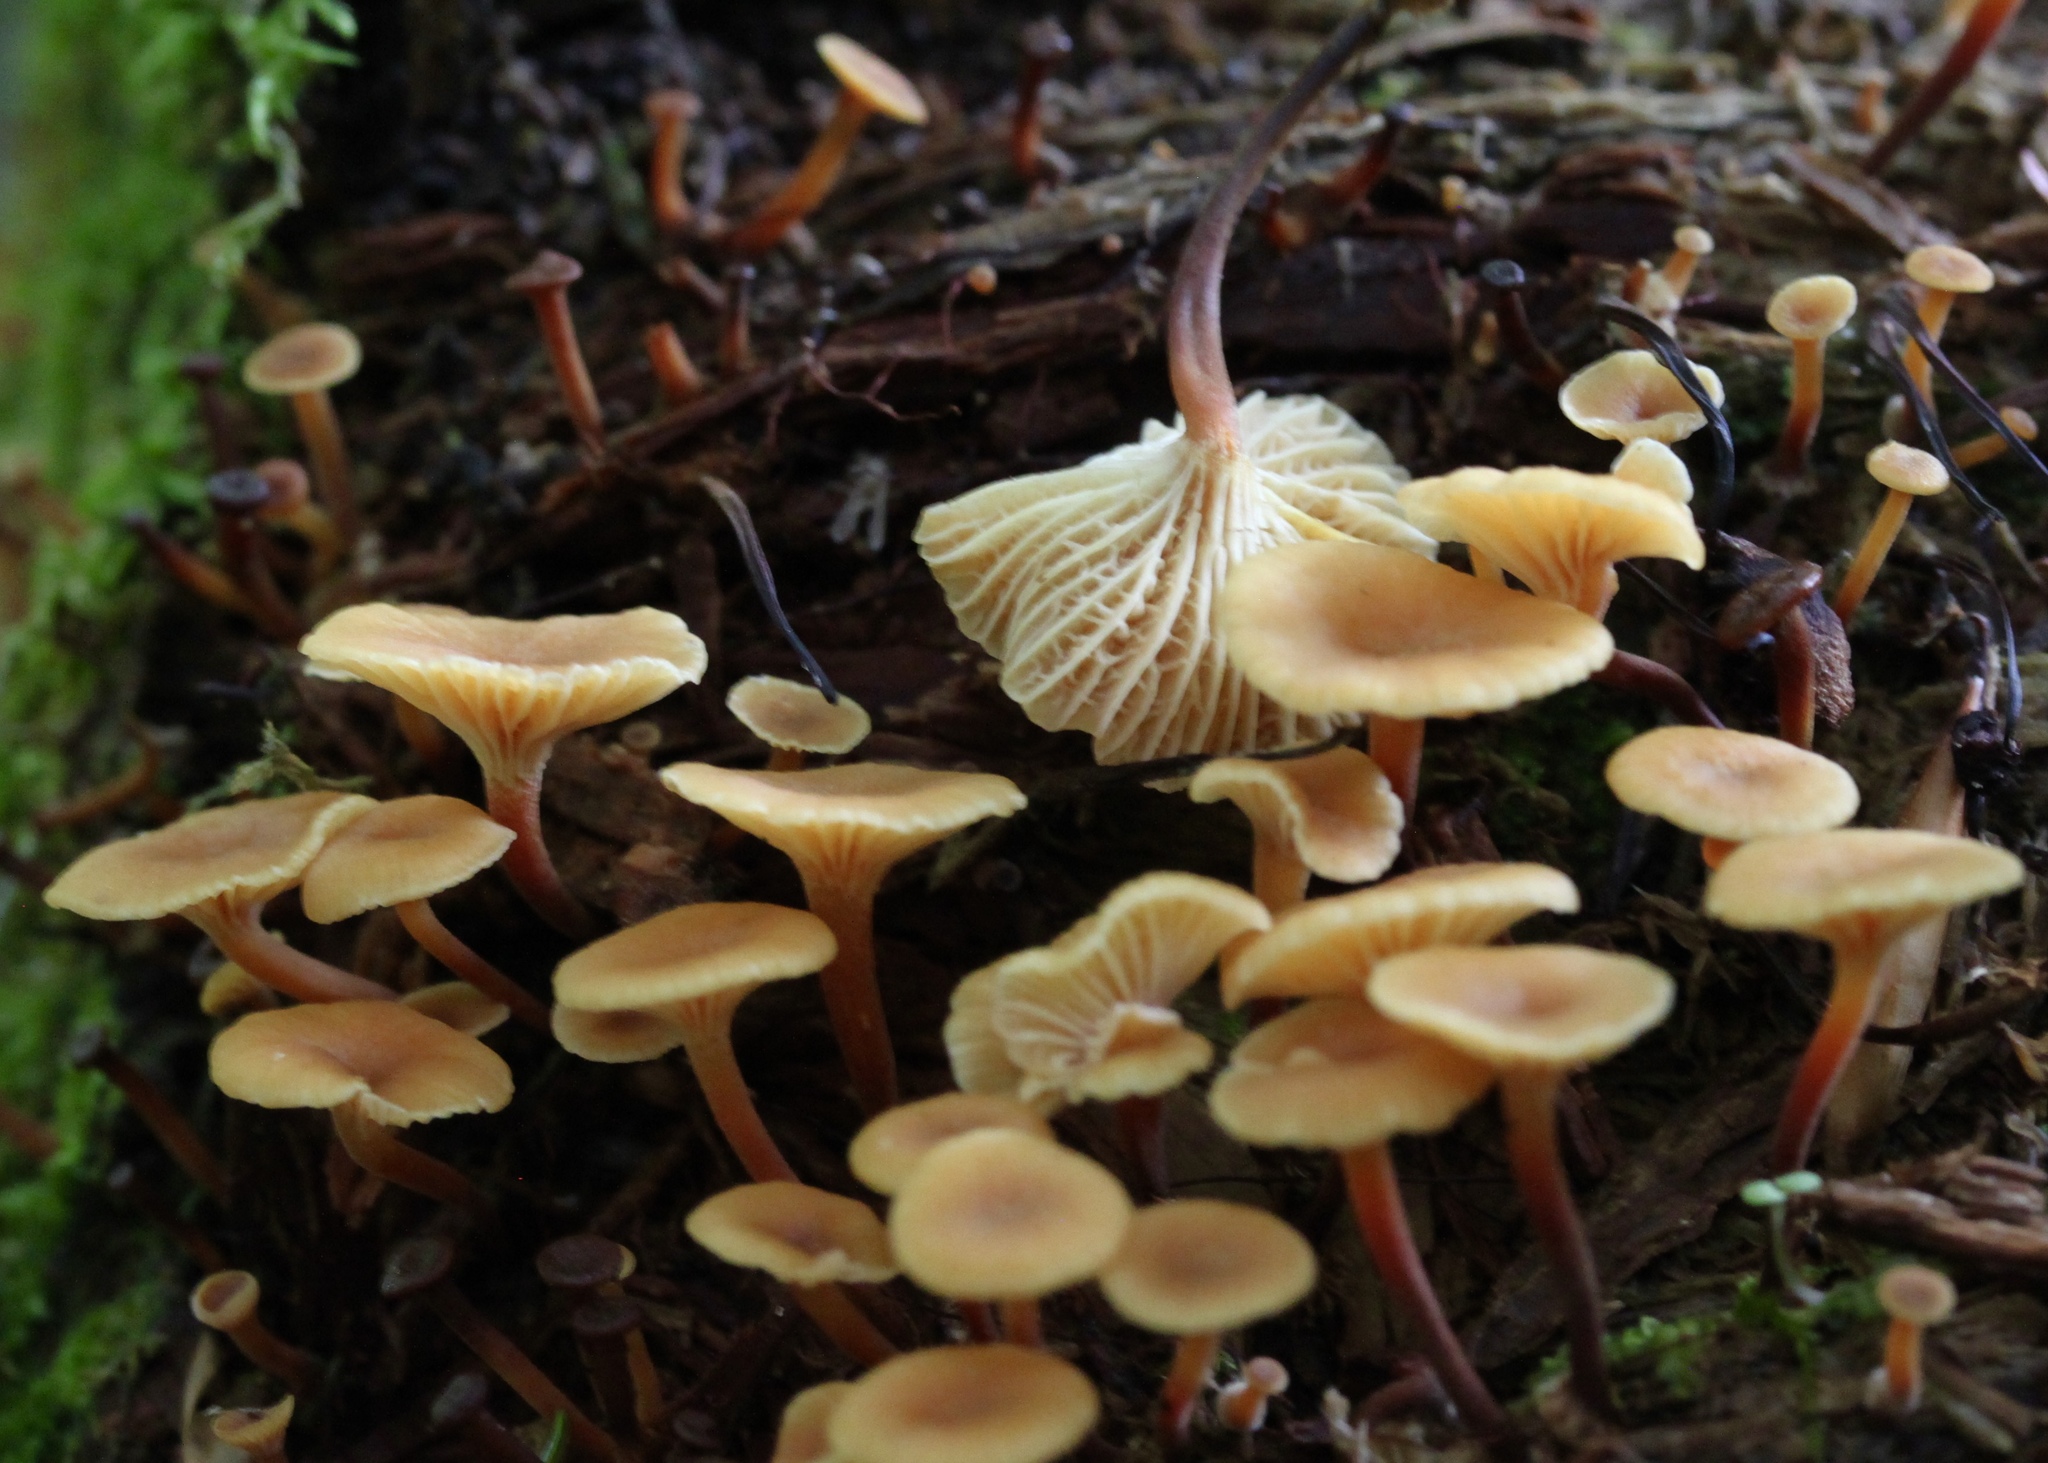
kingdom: Fungi
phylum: Basidiomycota
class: Agaricomycetes
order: Agaricales
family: Mycenaceae
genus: Xeromphalina
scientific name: Xeromphalina campanella
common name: Pinewood gingertail
